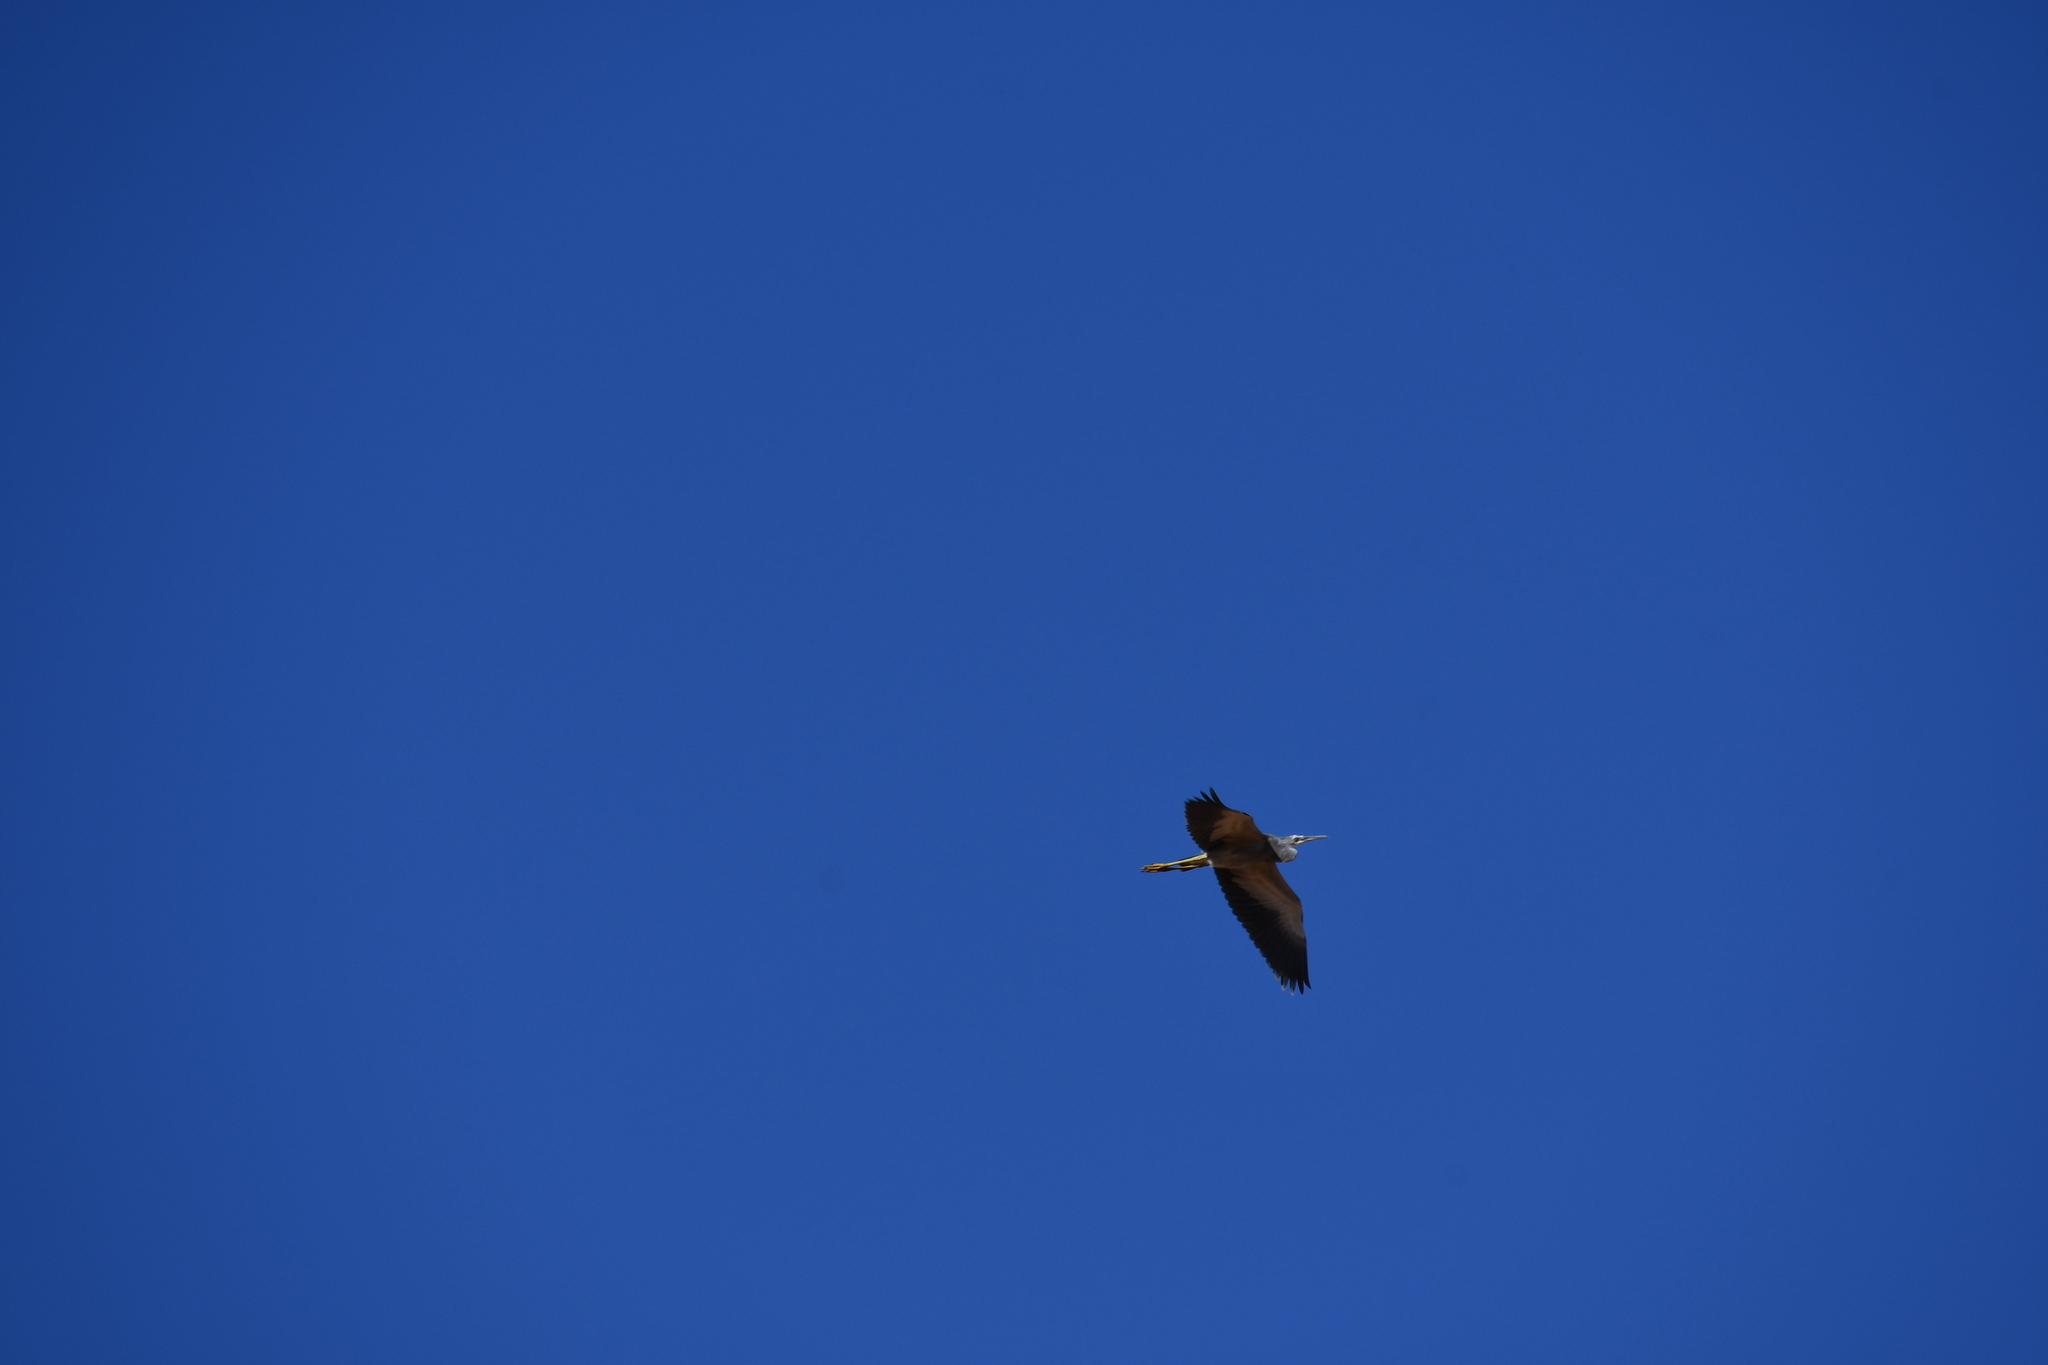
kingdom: Animalia
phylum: Chordata
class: Aves
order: Pelecaniformes
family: Ardeidae
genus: Egretta
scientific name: Egretta novaehollandiae
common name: White-faced heron
